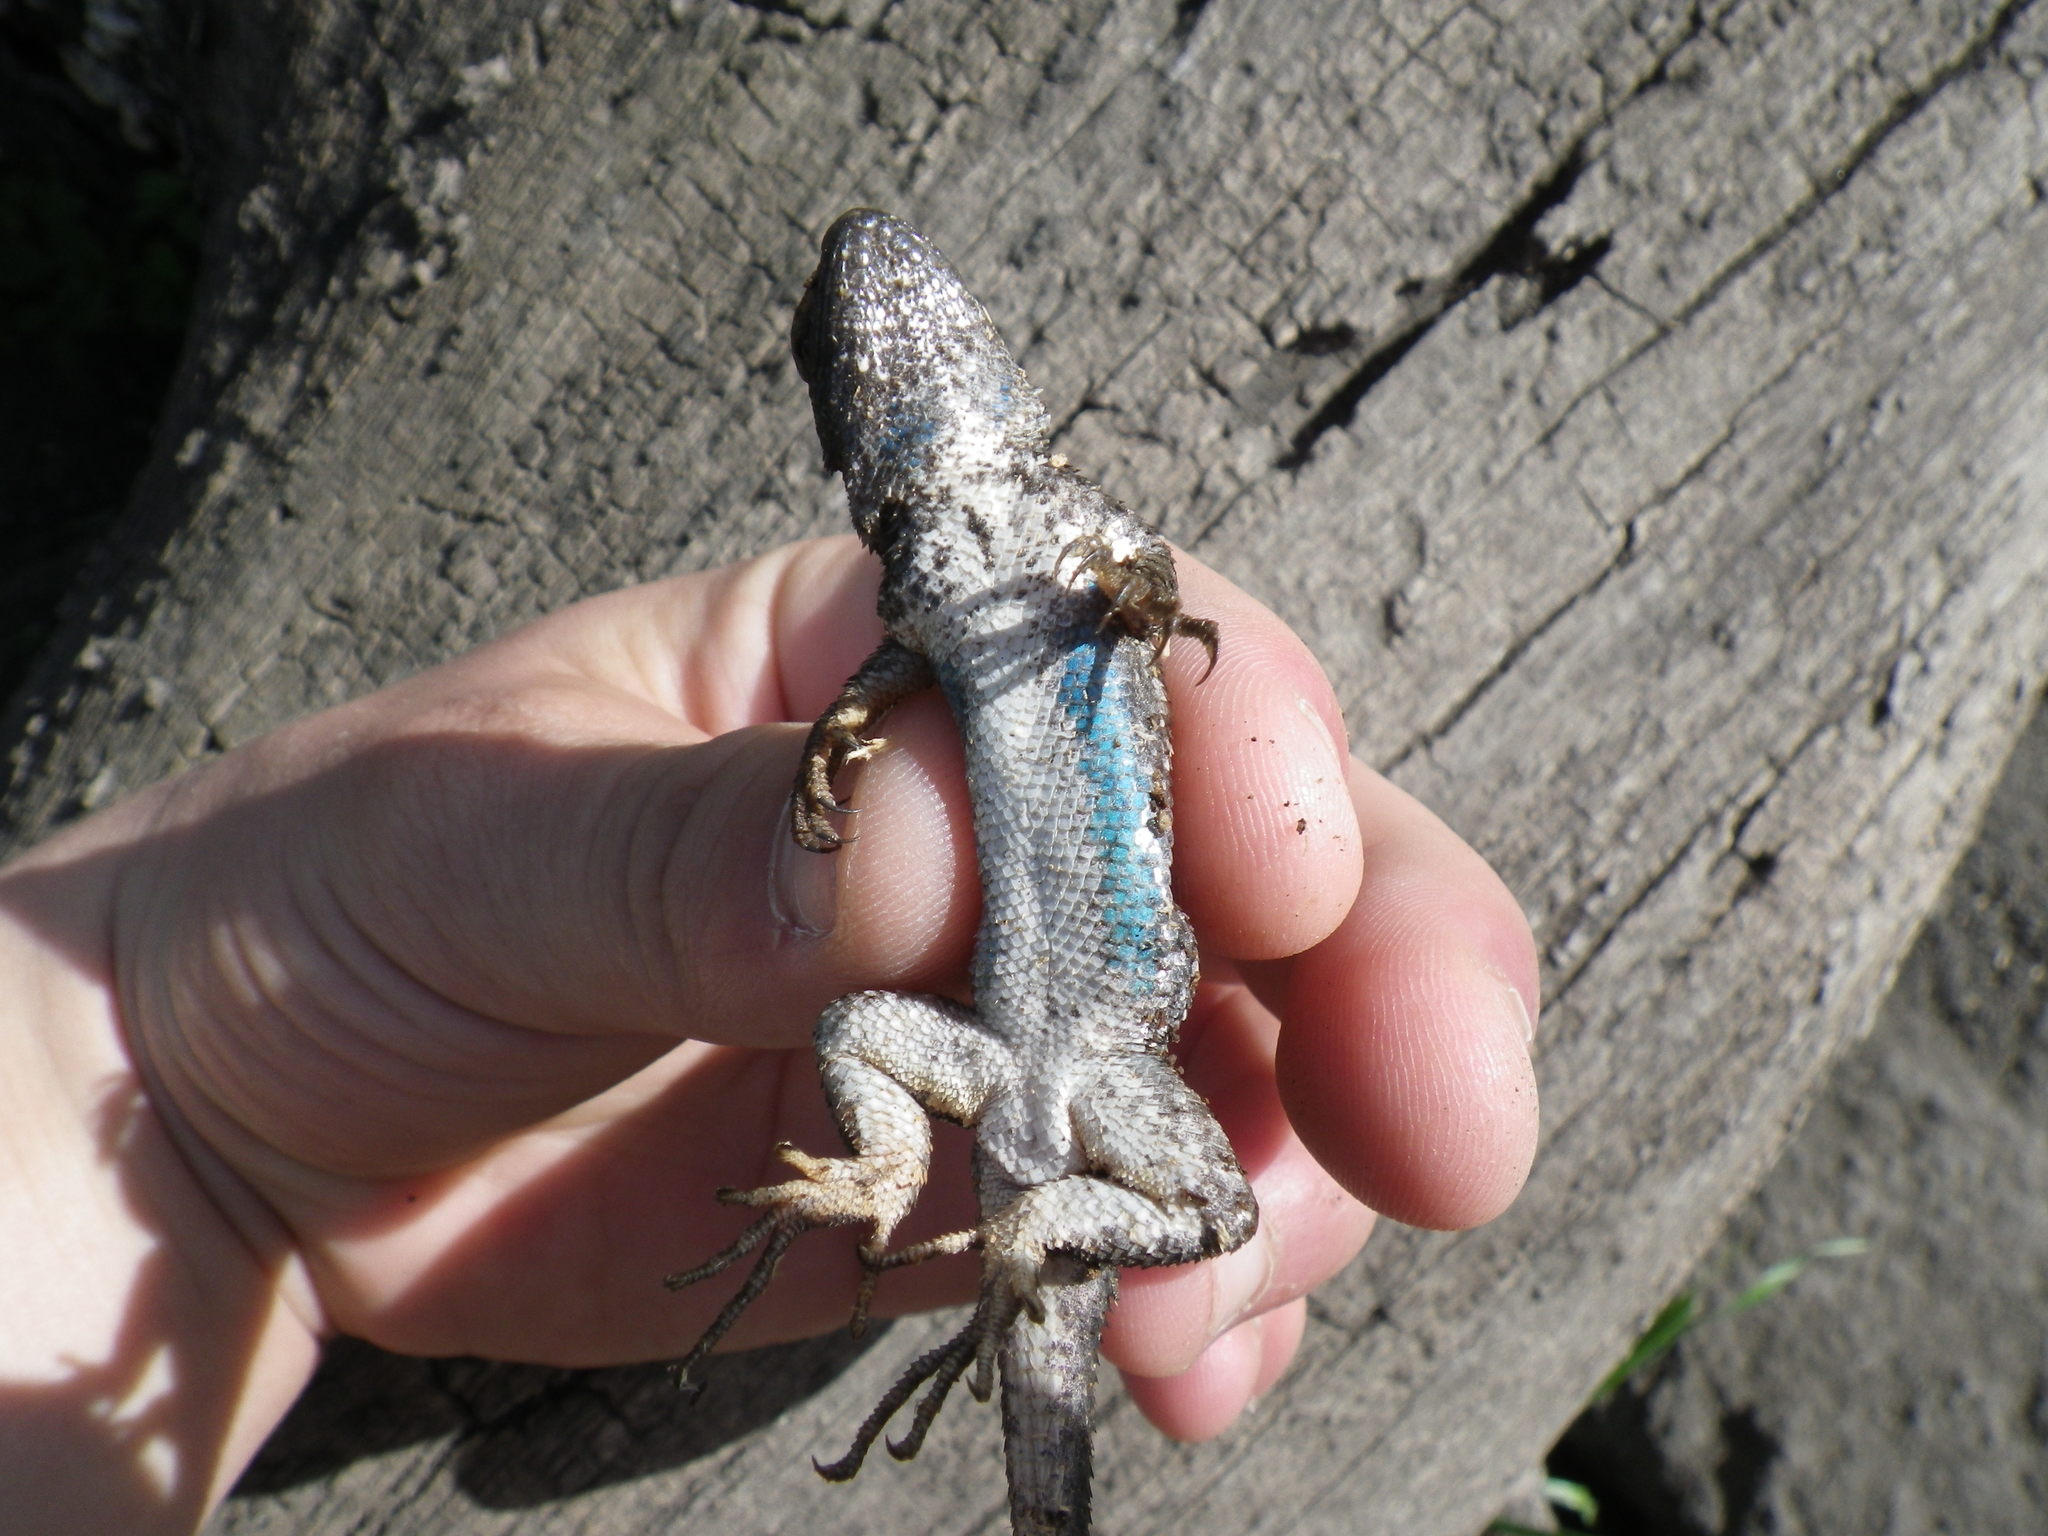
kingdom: Animalia
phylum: Chordata
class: Squamata
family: Phrynosomatidae
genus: Sceloporus
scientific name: Sceloporus occidentalis
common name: Western fence lizard
